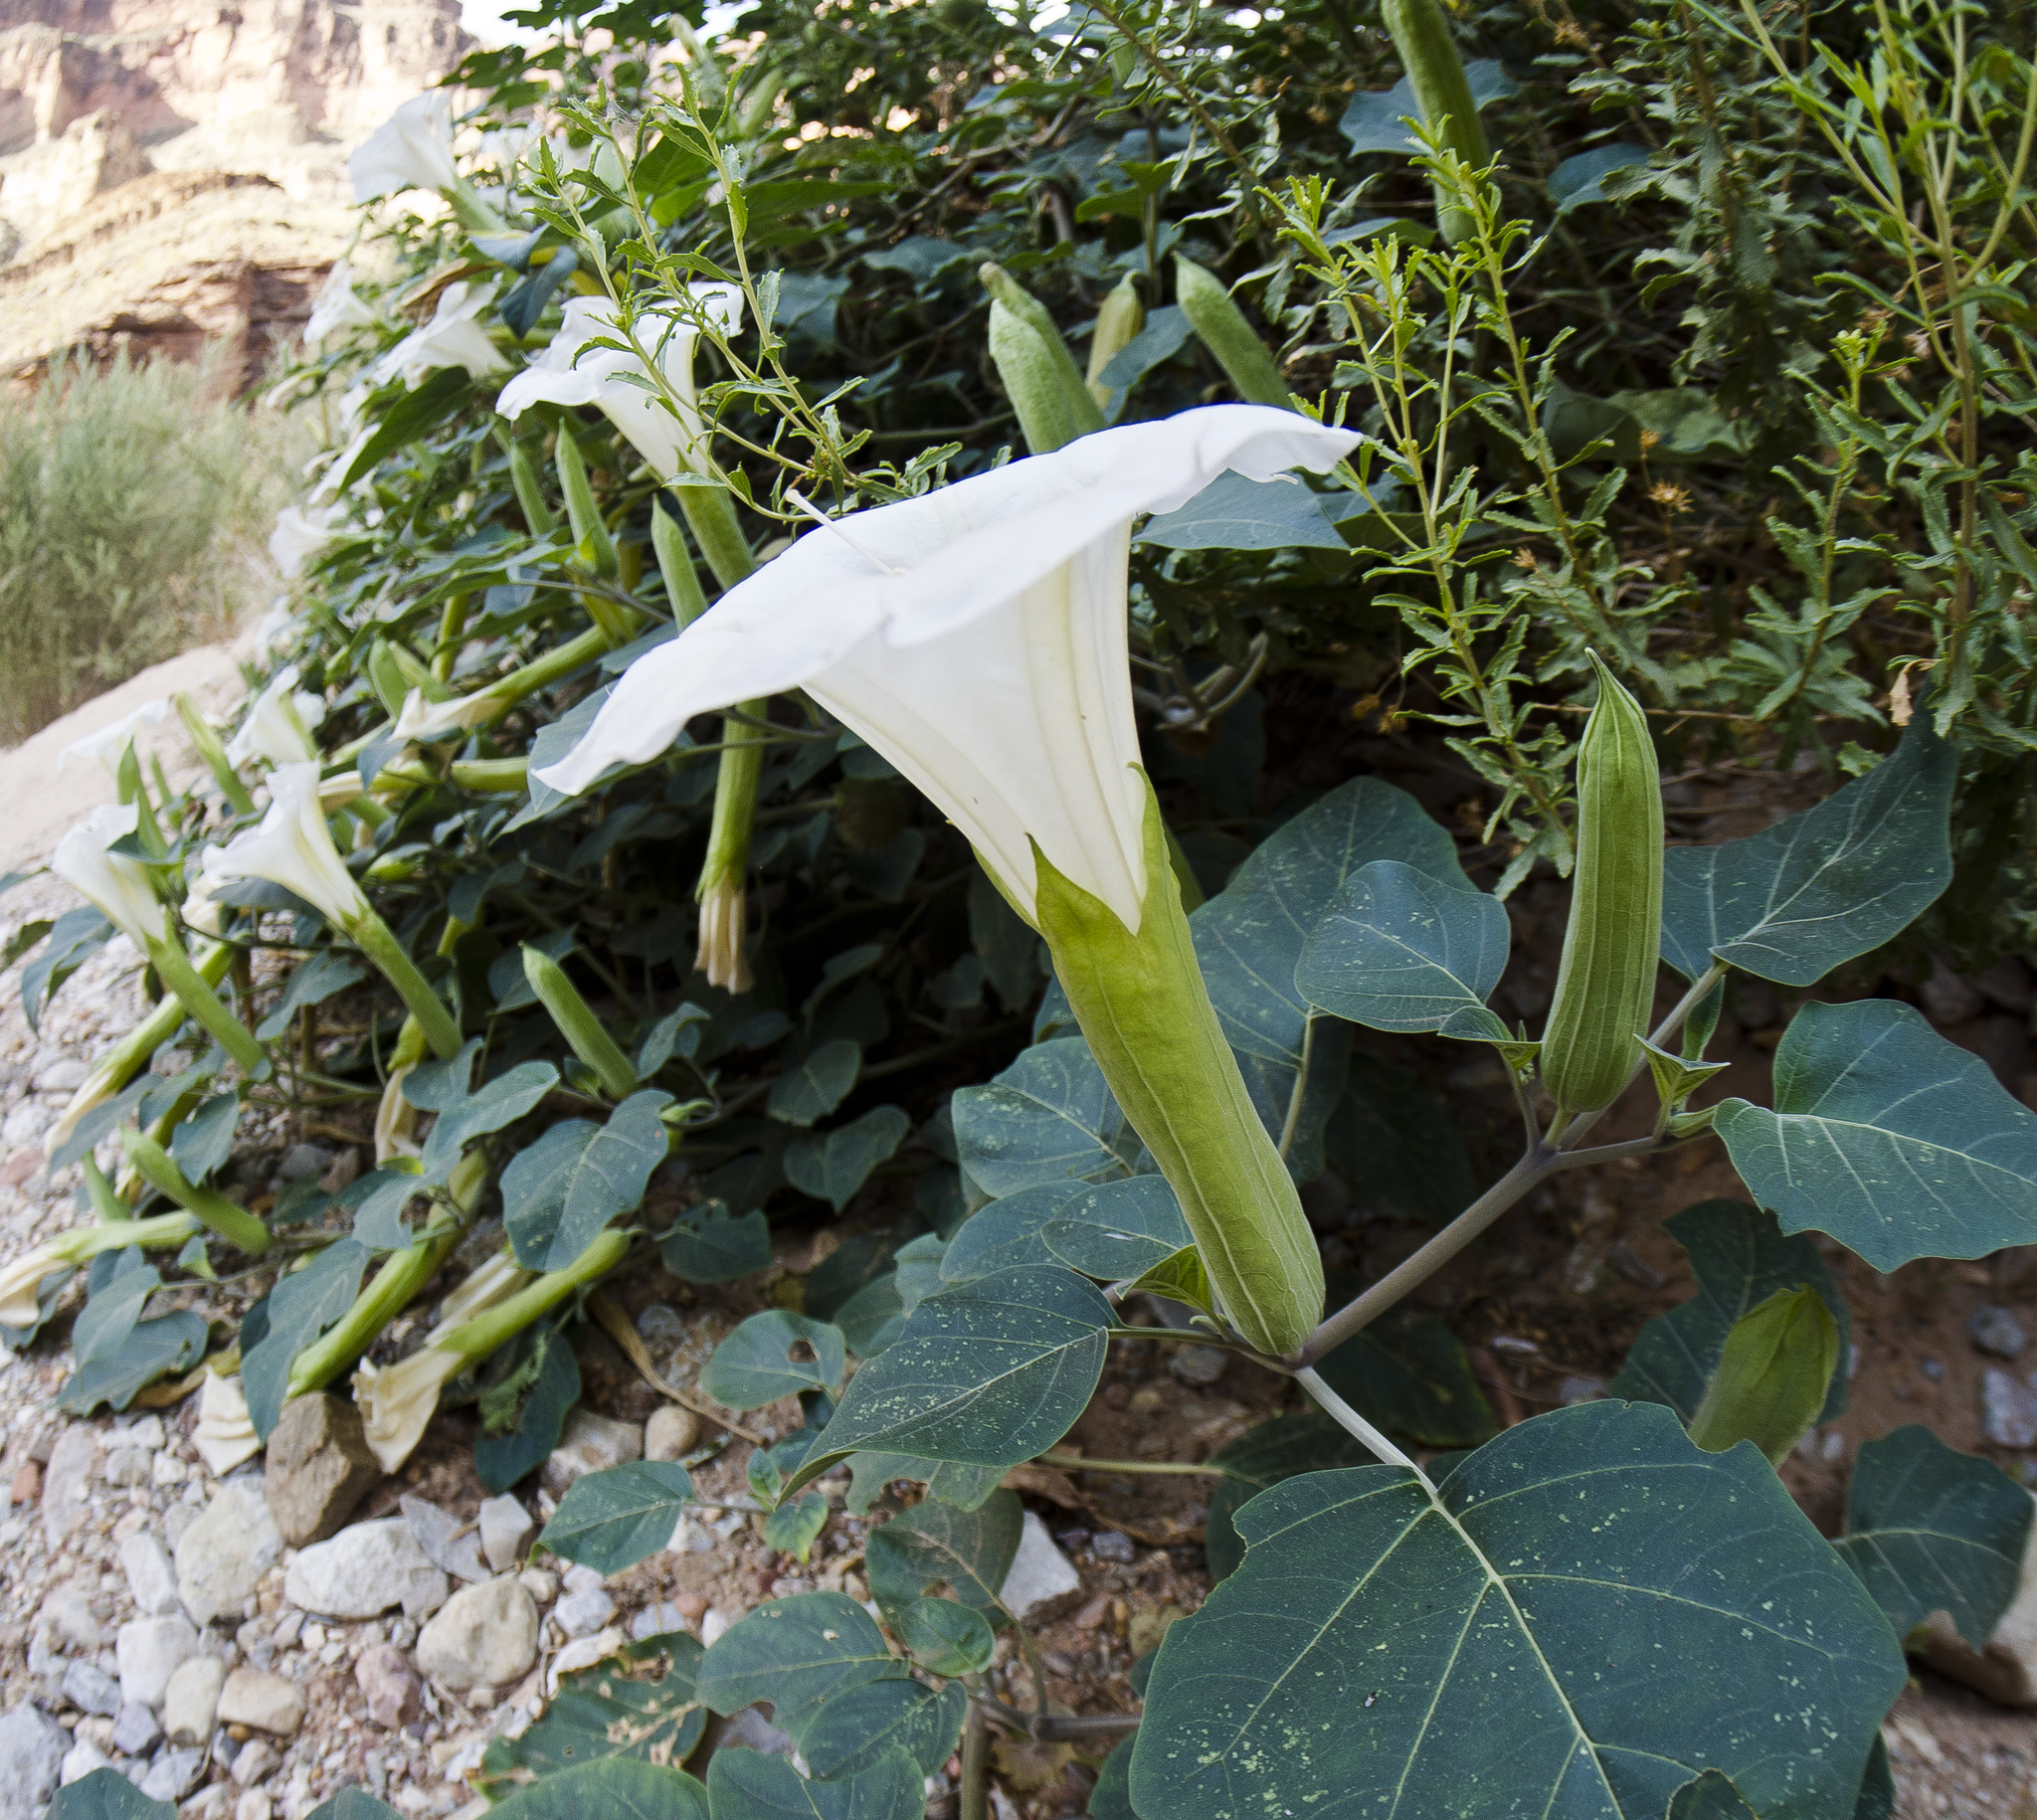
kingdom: Plantae
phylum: Tracheophyta
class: Magnoliopsida
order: Solanales
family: Solanaceae
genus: Datura
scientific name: Datura wrightii
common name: Sacred thorn-apple
